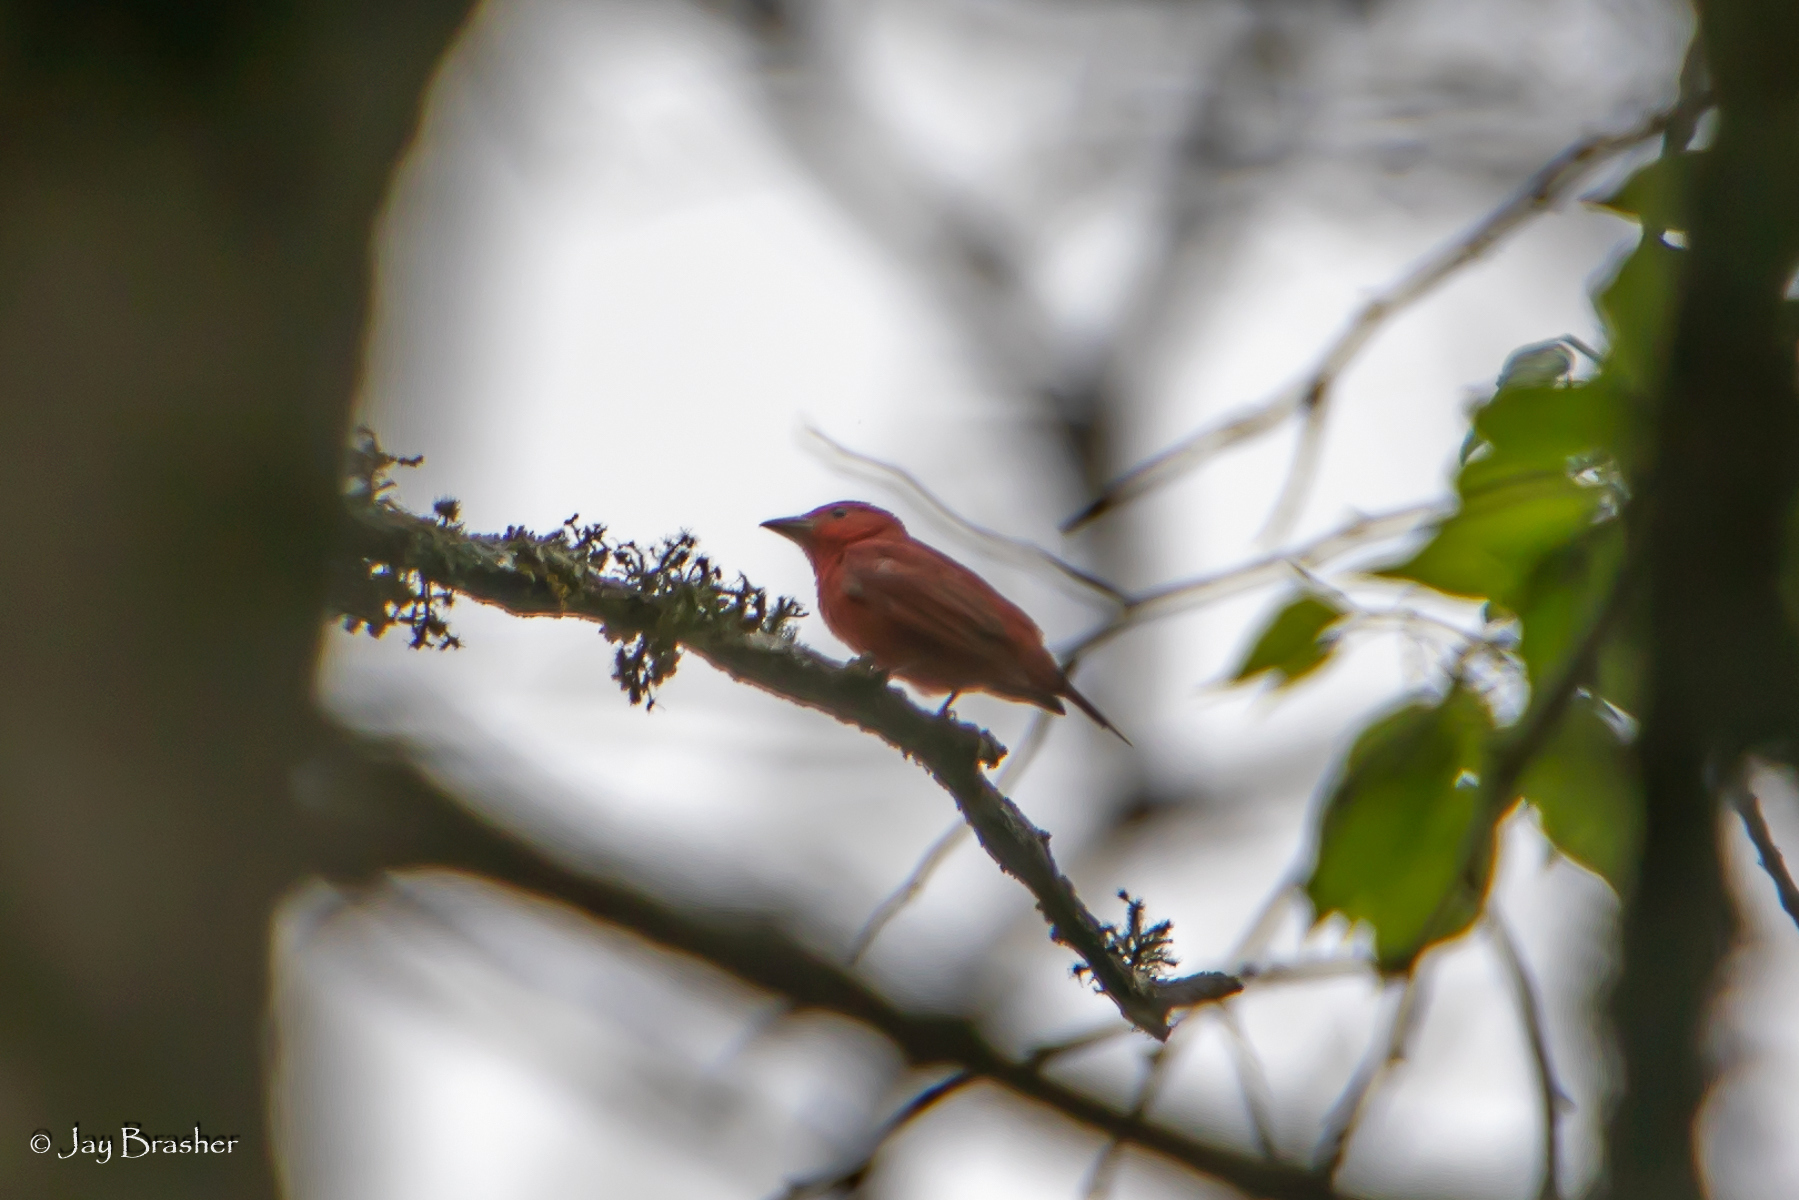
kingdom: Animalia
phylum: Chordata
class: Aves
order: Passeriformes
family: Cardinalidae
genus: Piranga
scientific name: Piranga rubra
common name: Summer tanager
